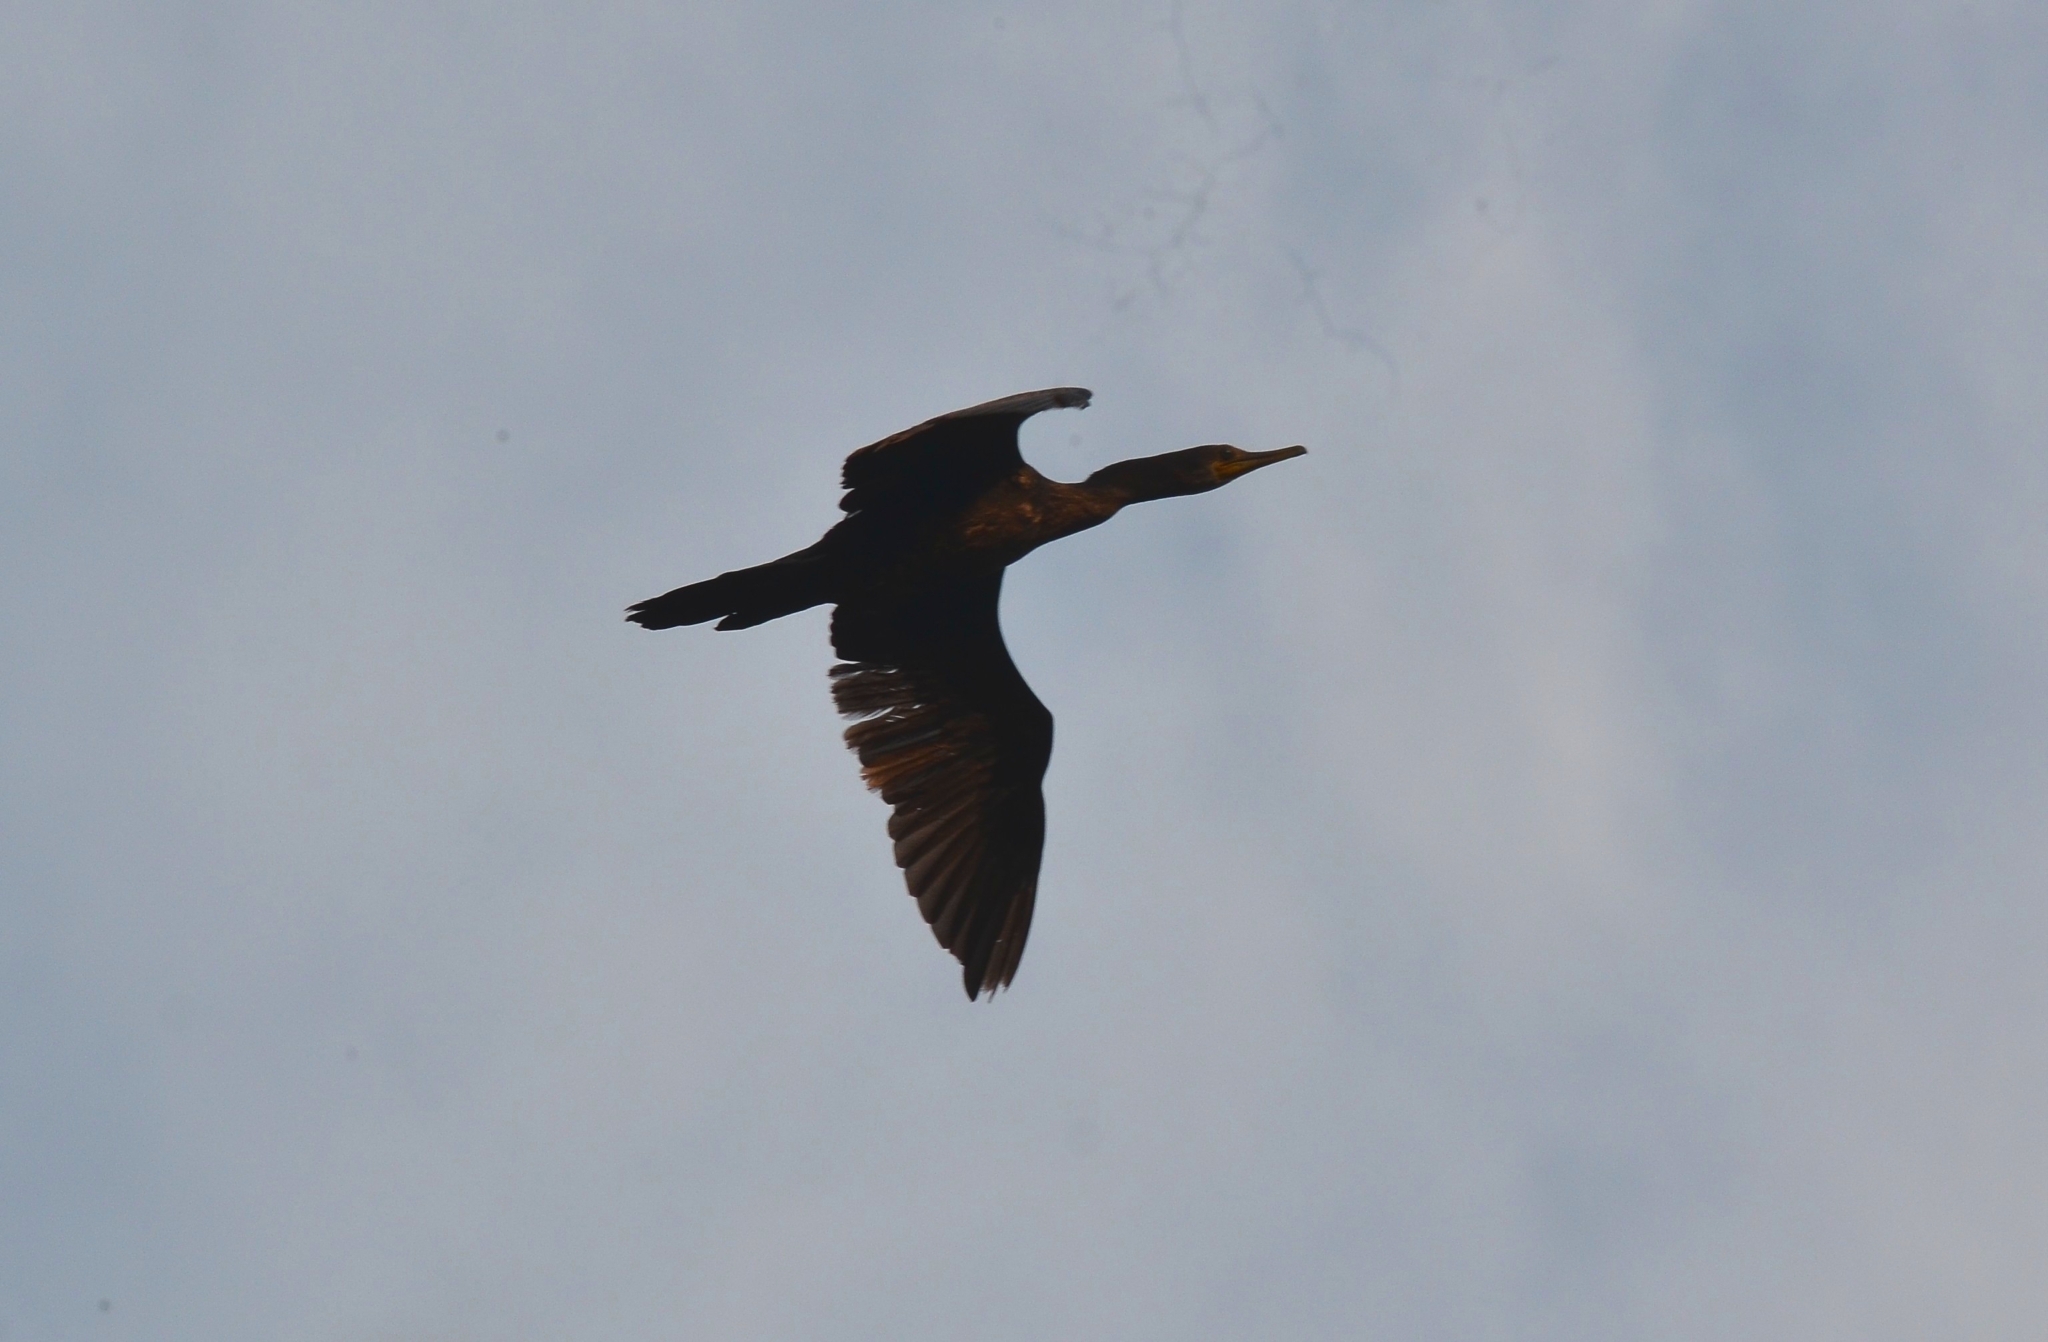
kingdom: Animalia
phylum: Chordata
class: Aves
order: Suliformes
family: Phalacrocoracidae
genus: Phalacrocorax
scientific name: Phalacrocorax fuscicollis
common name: Indian cormorant
